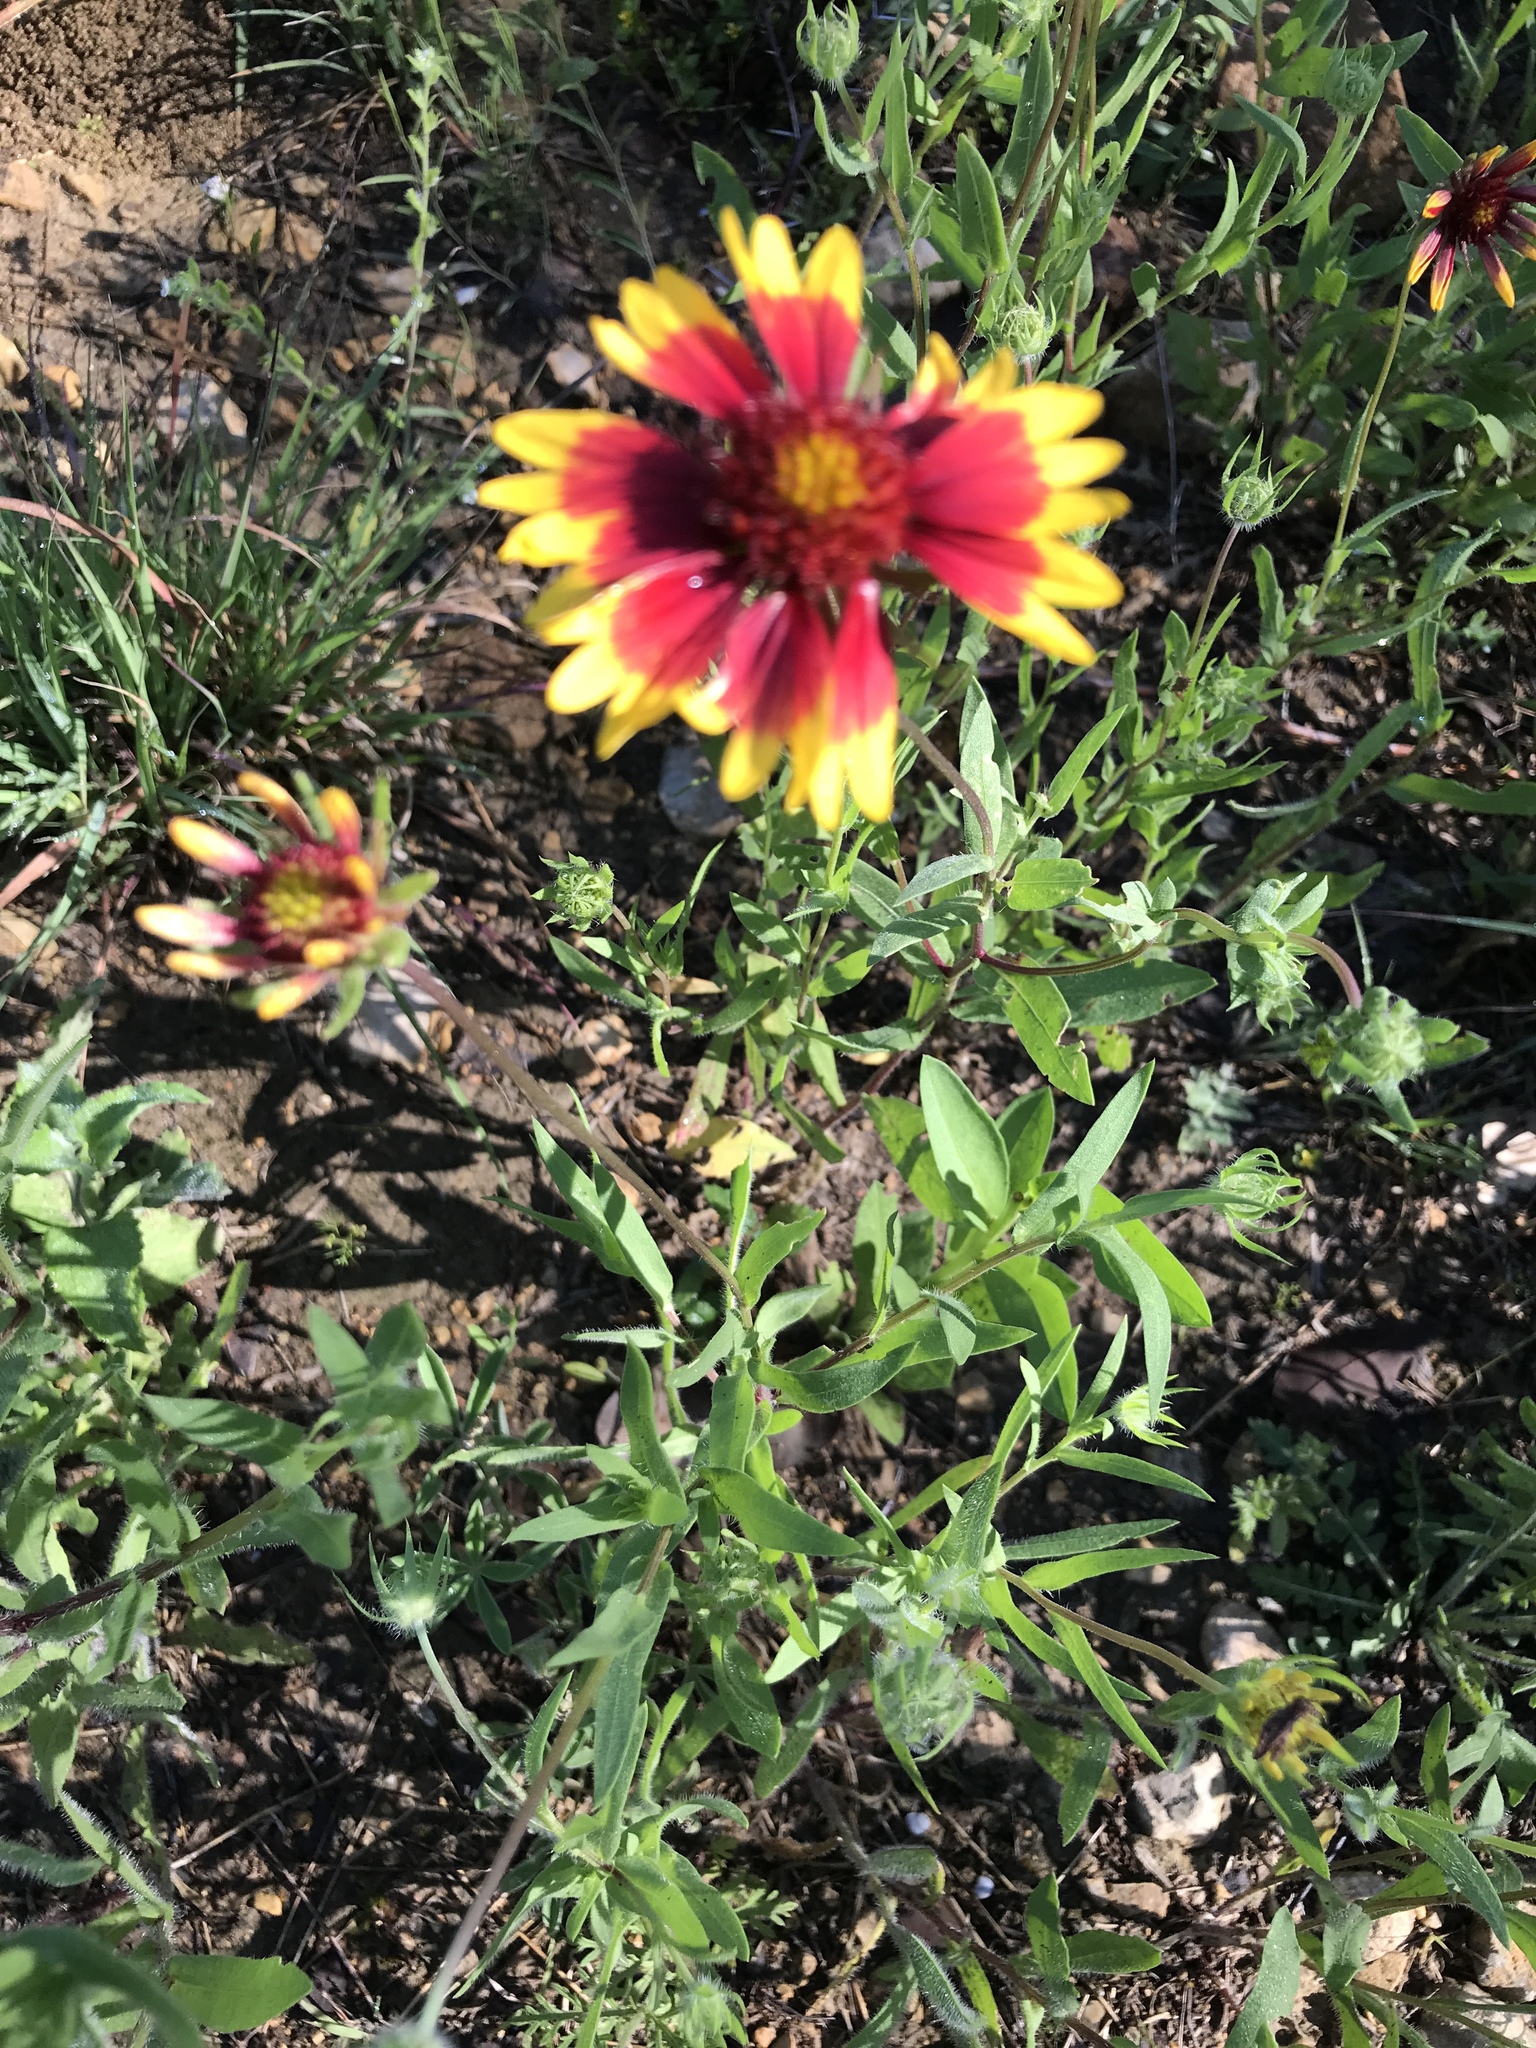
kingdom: Plantae
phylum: Tracheophyta
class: Magnoliopsida
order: Asterales
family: Asteraceae
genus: Gaillardia
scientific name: Gaillardia pulchella
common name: Firewheel
